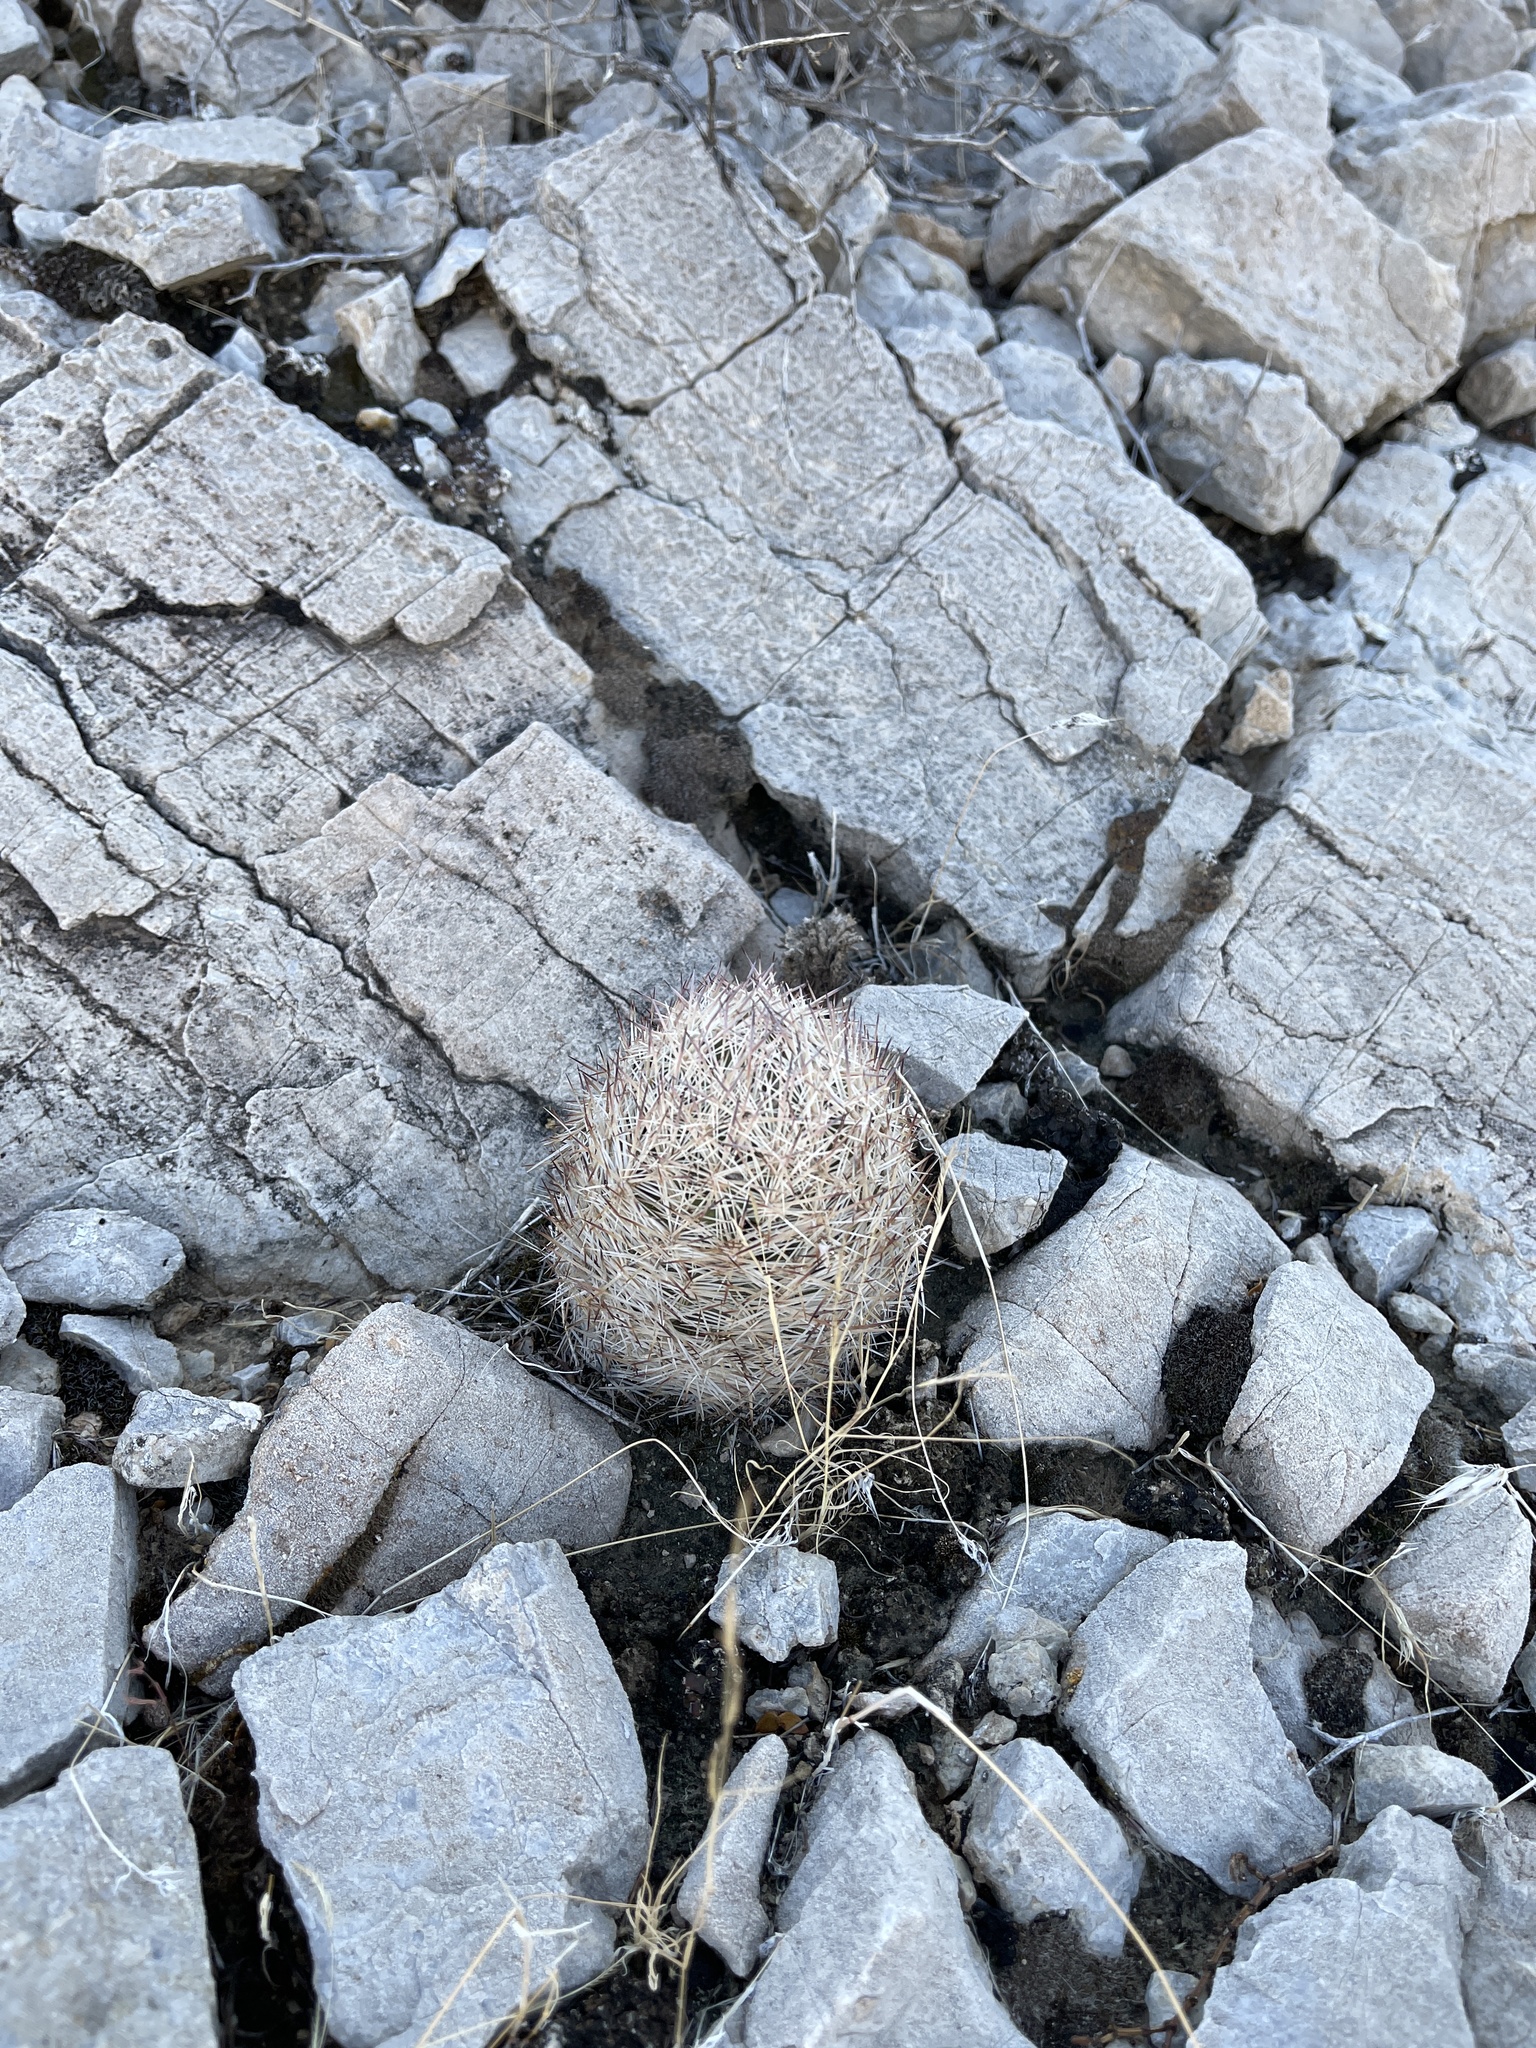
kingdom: Plantae
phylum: Tracheophyta
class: Magnoliopsida
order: Caryophyllales
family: Cactaceae
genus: Pelecyphora
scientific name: Pelecyphora dasyacantha
